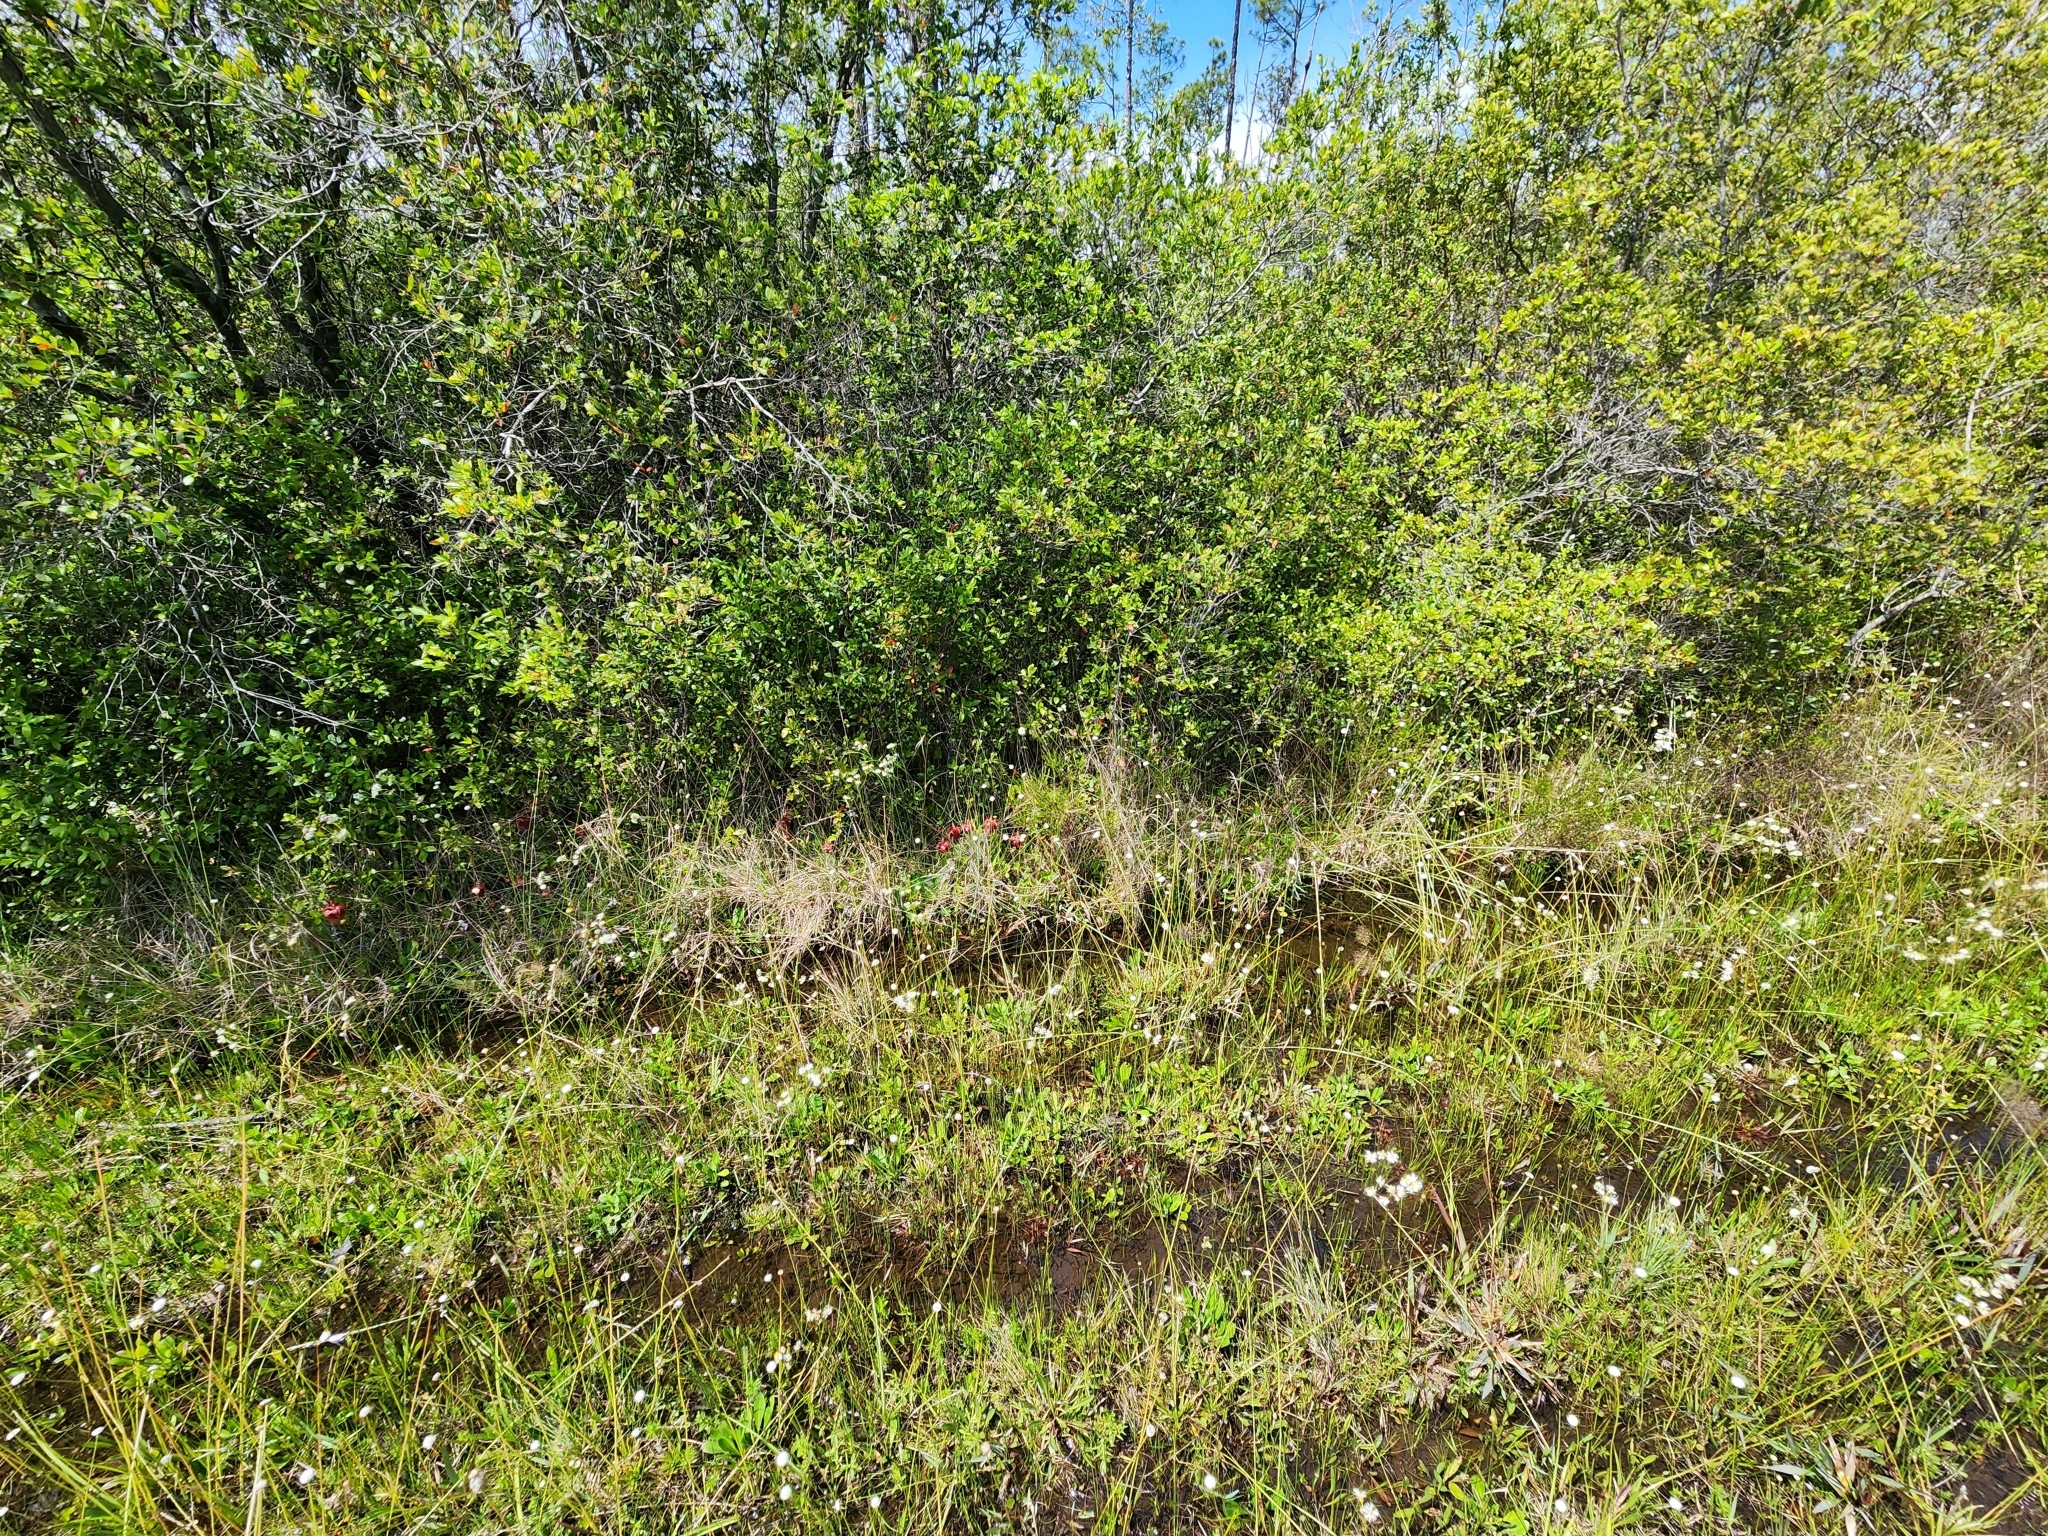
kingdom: Plantae
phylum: Tracheophyta
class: Magnoliopsida
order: Ericales
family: Sarraceniaceae
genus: Sarracenia
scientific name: Sarracenia psittacina
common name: Parrot pitcherplant
